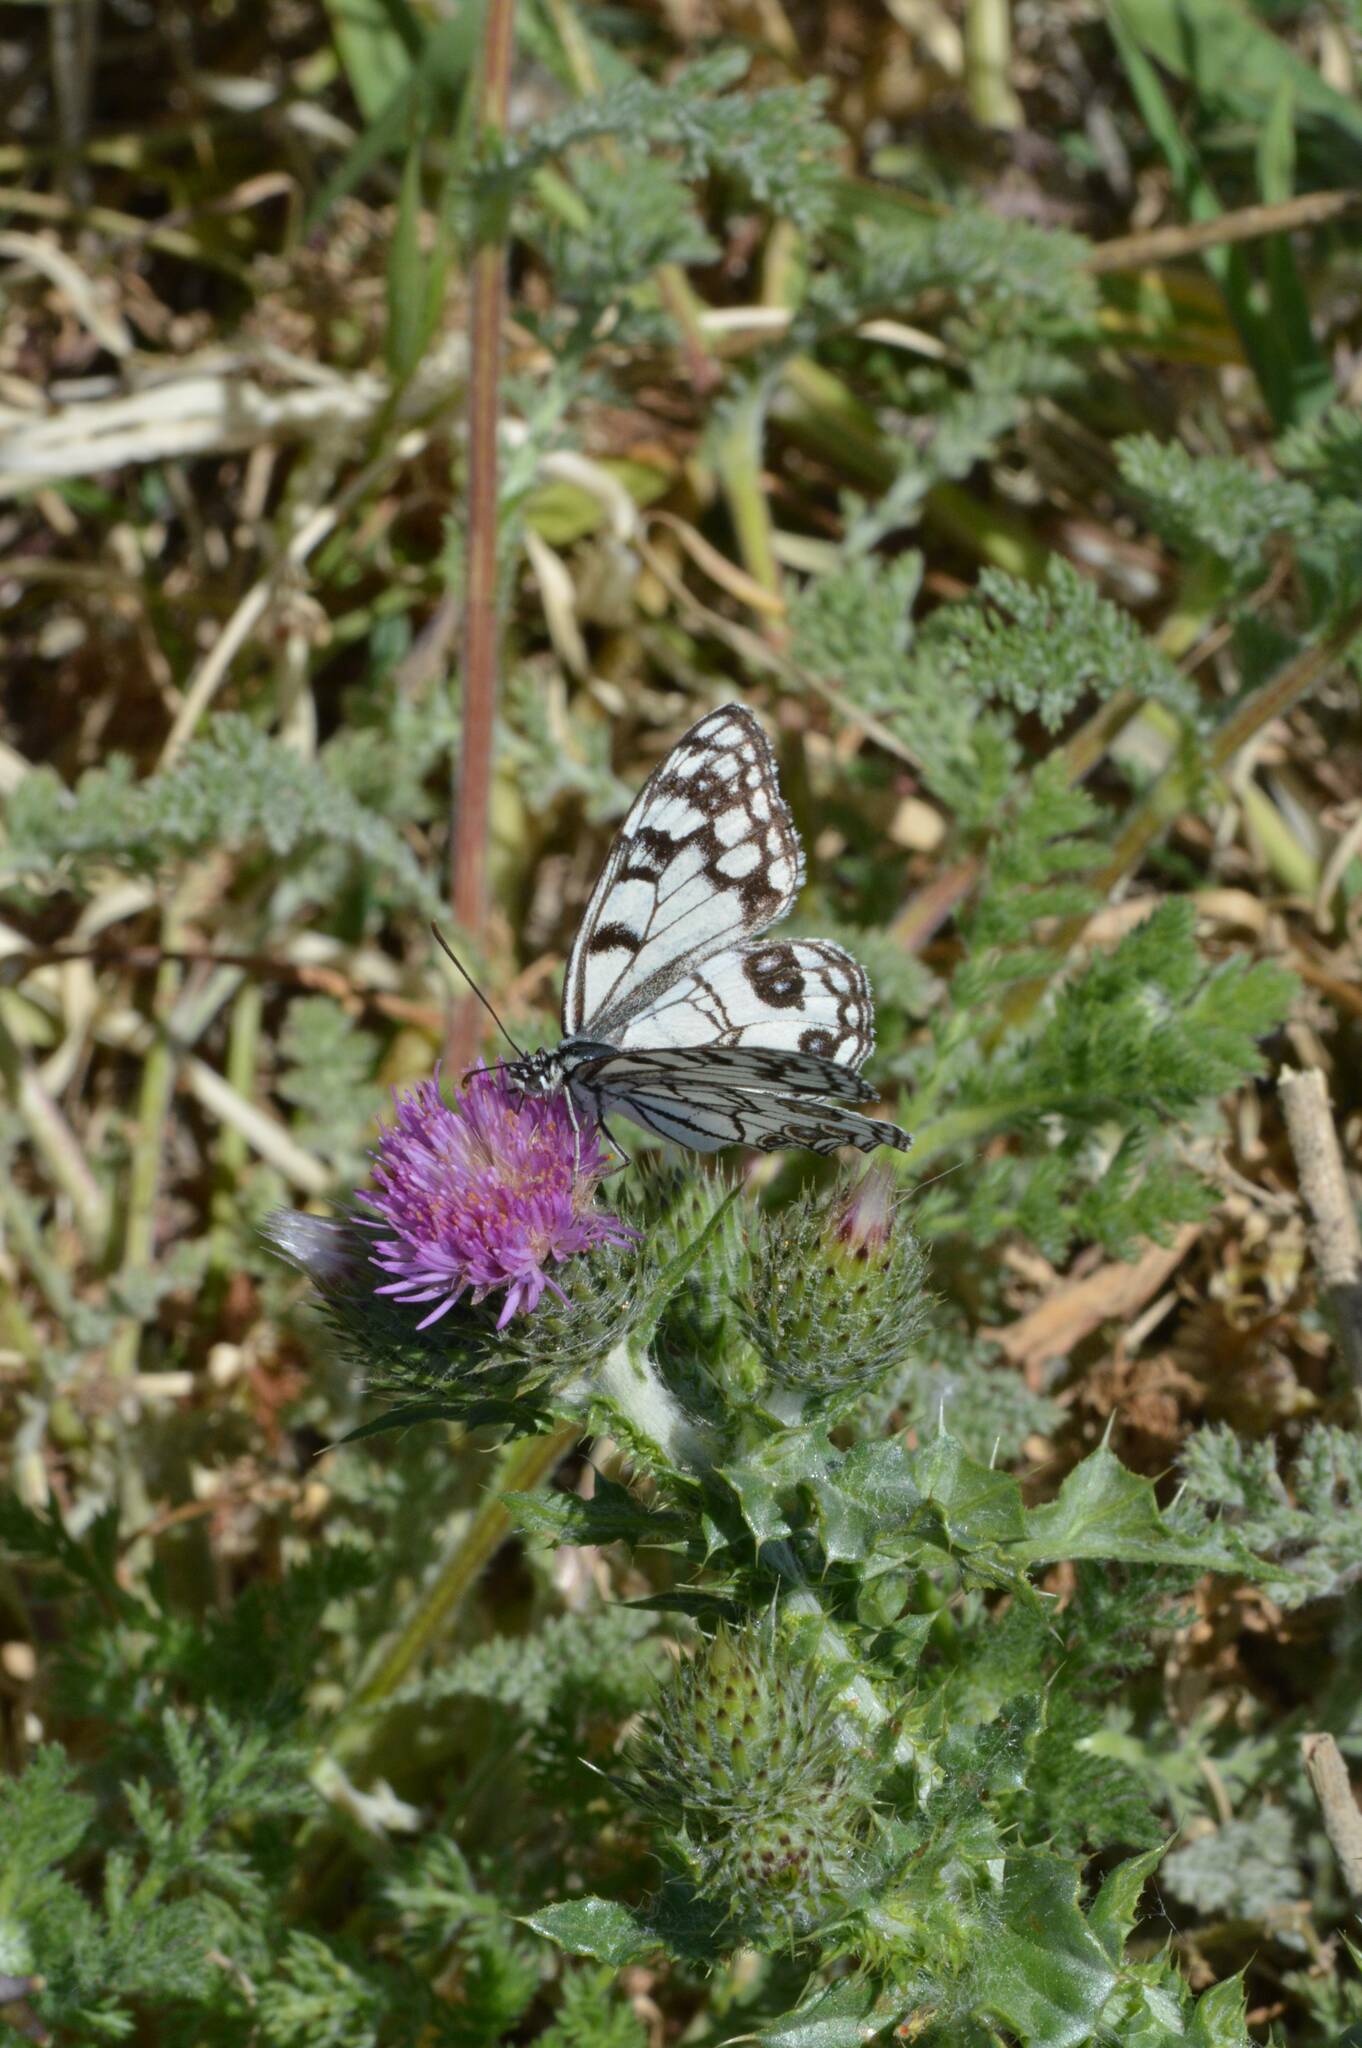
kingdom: Animalia
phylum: Arthropoda
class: Insecta
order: Lepidoptera
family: Nymphalidae
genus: Melanargia
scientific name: Melanargia ines
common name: Spanish marbled white
